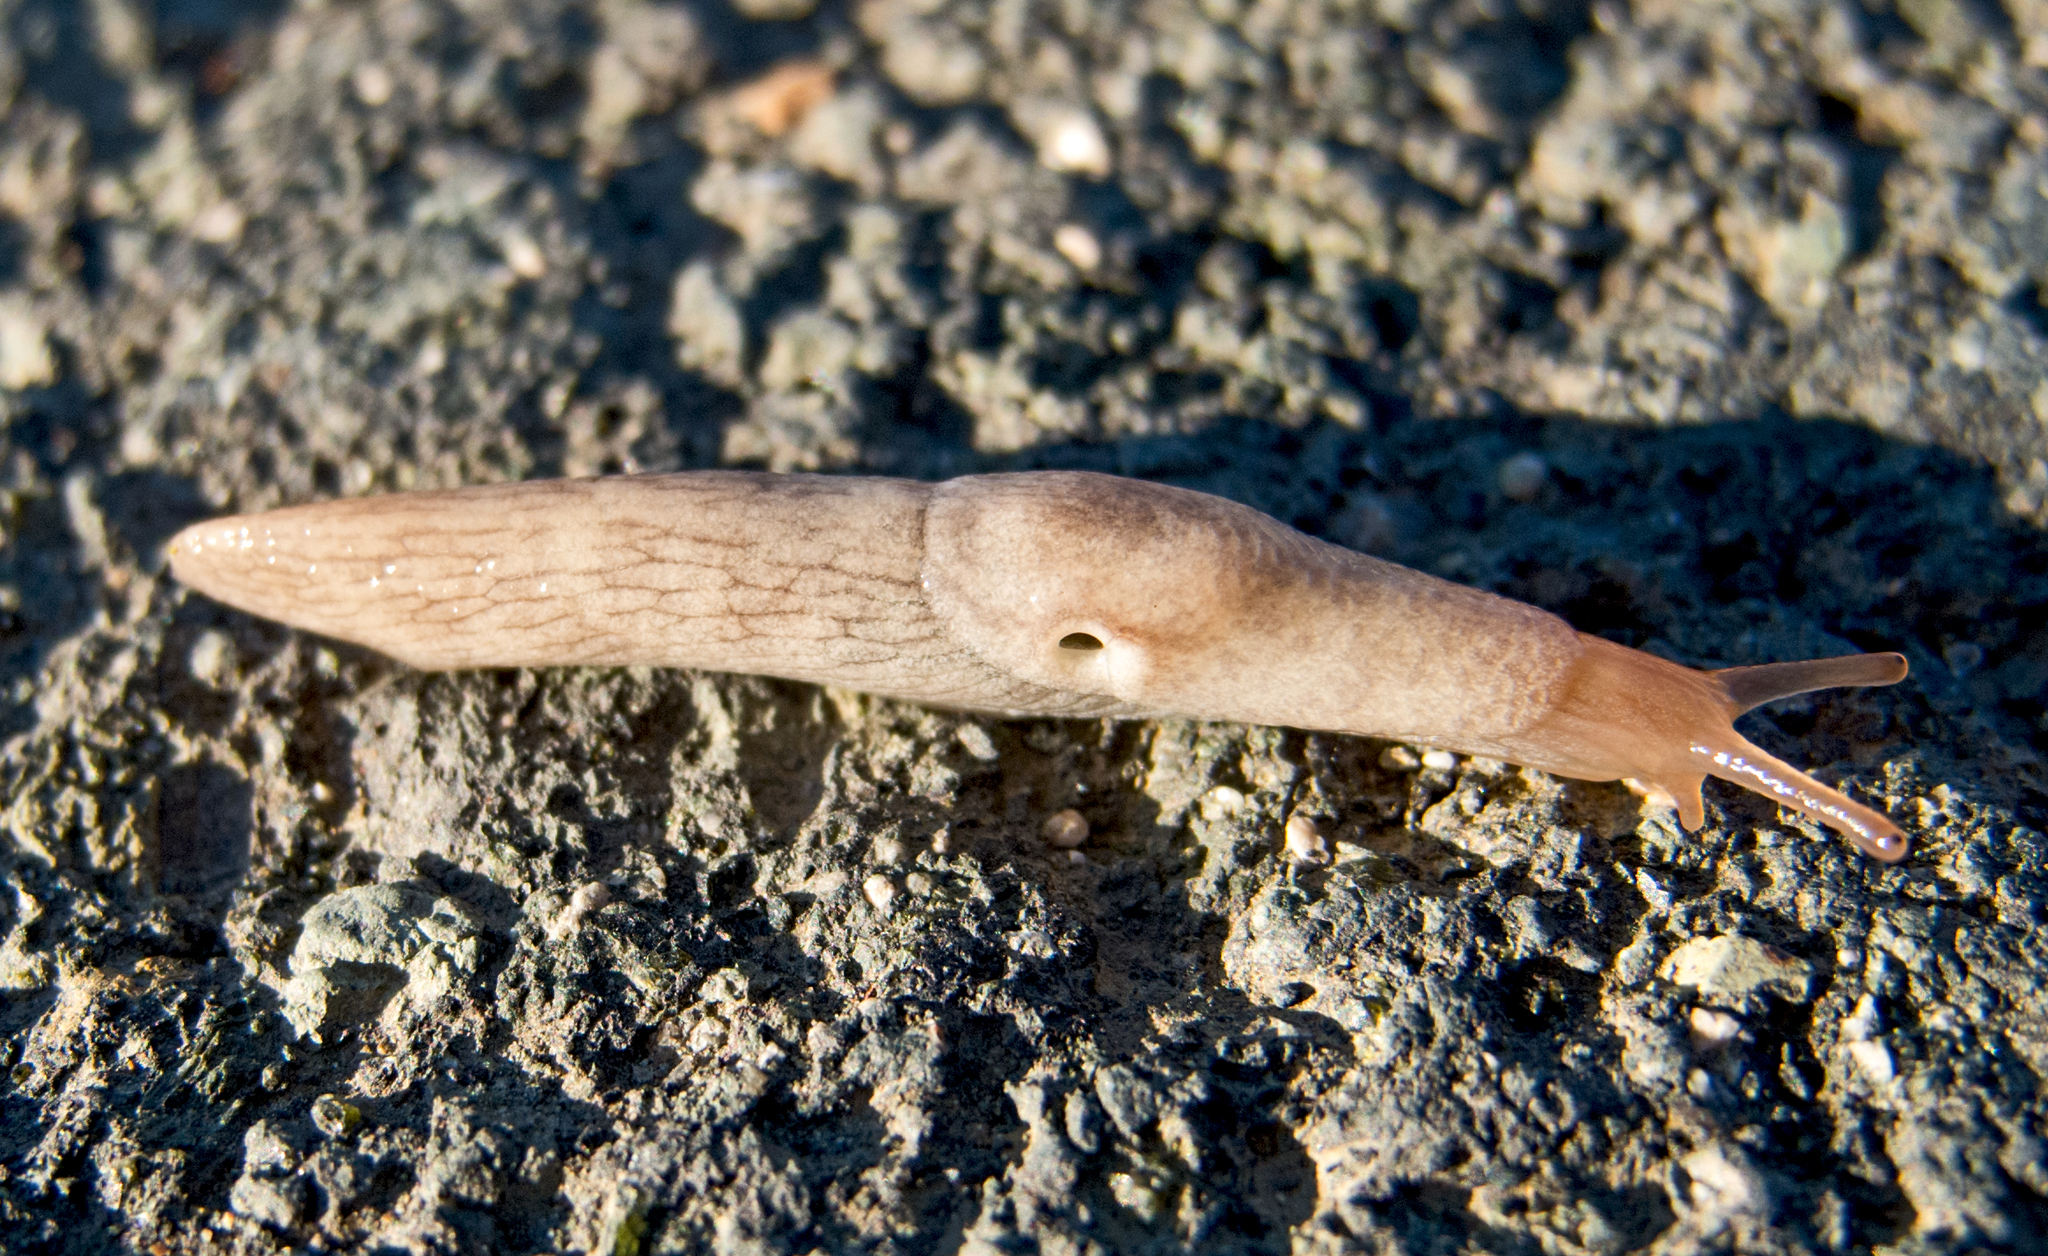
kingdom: Animalia
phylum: Mollusca
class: Gastropoda
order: Stylommatophora
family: Agriolimacidae
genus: Deroceras
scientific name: Deroceras reticulatum
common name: Gray field slug
